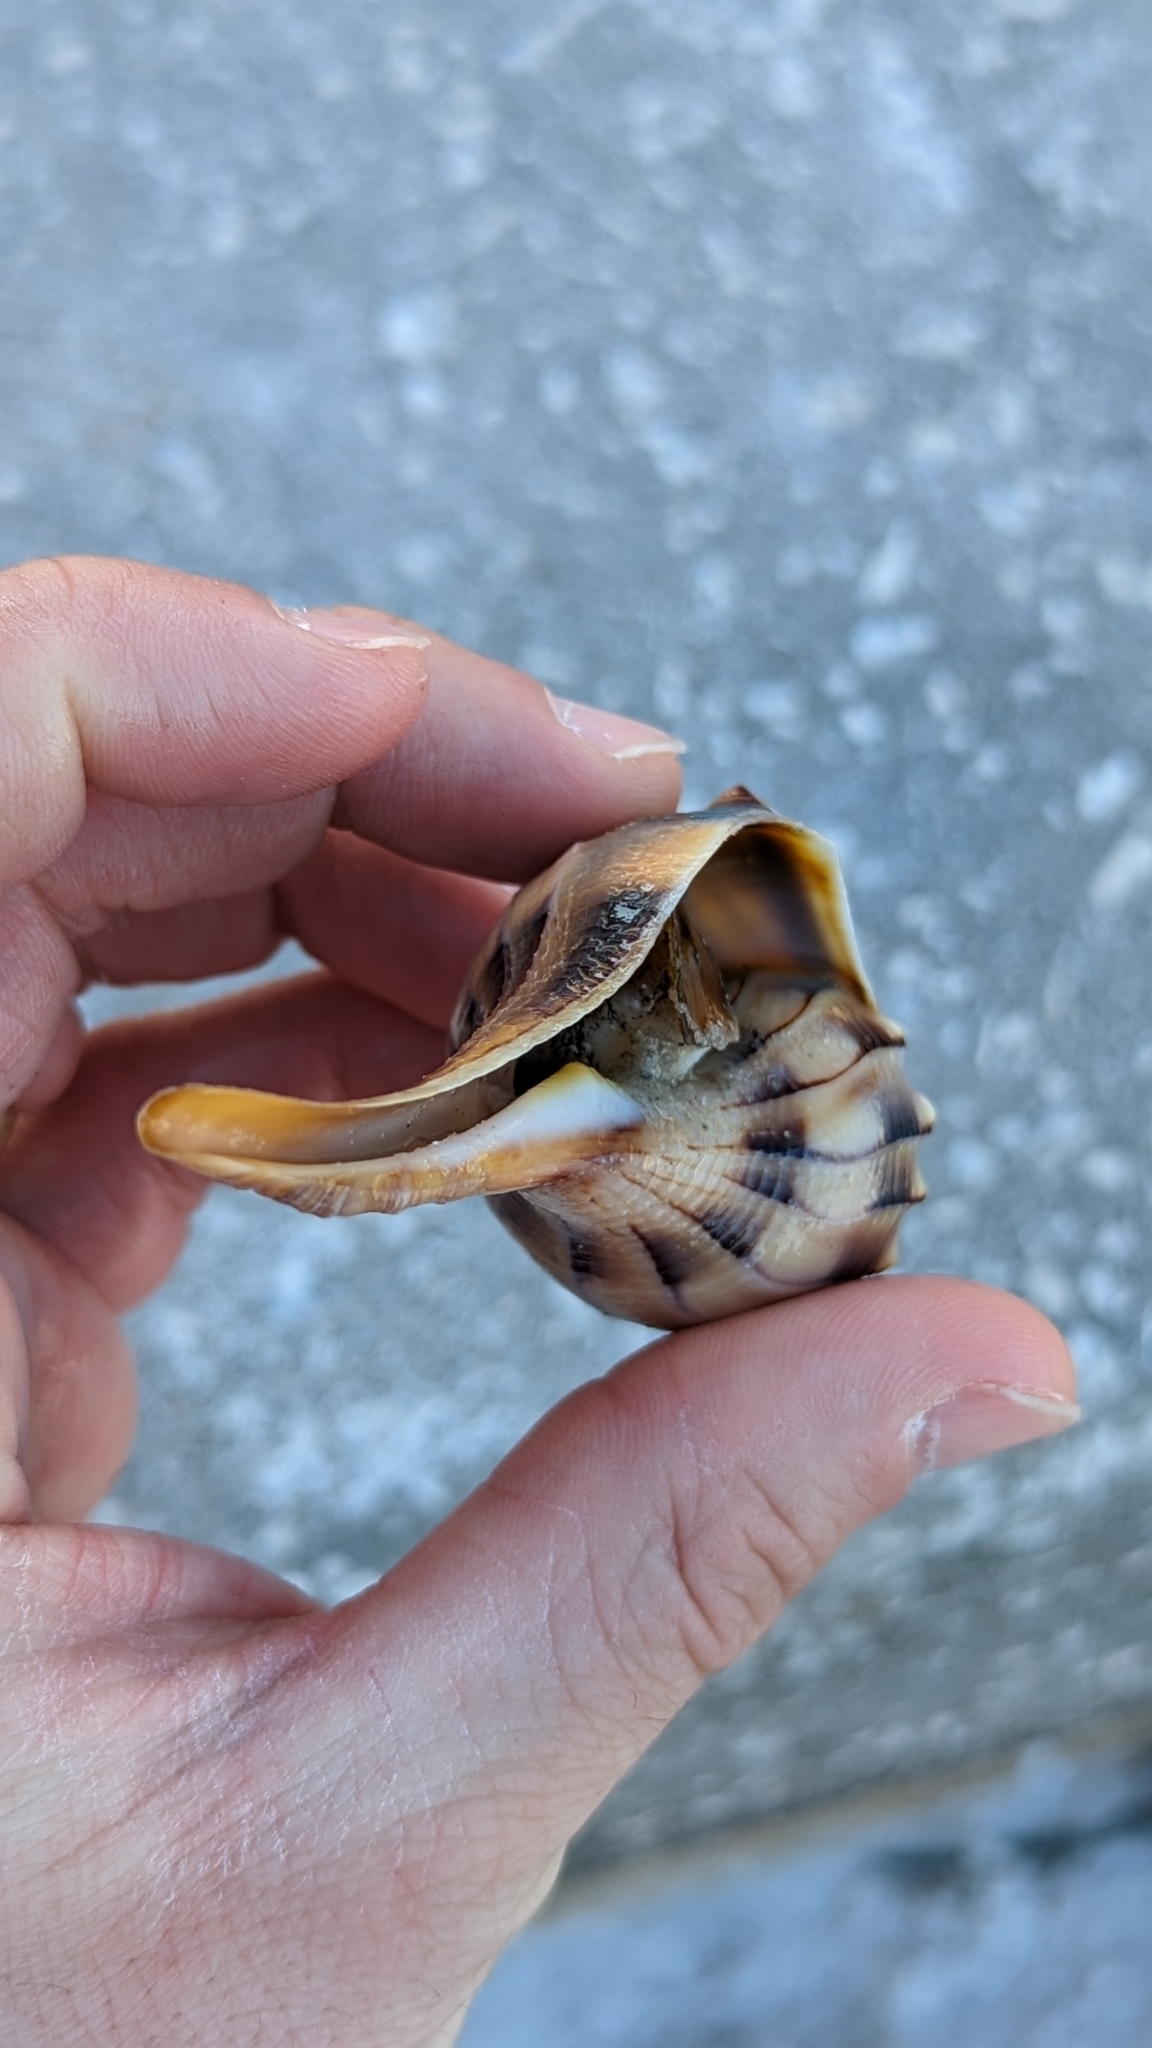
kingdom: Animalia
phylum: Mollusca
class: Gastropoda
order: Neogastropoda
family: Busyconidae
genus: Sinistrofulgur
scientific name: Sinistrofulgur sinistrum
